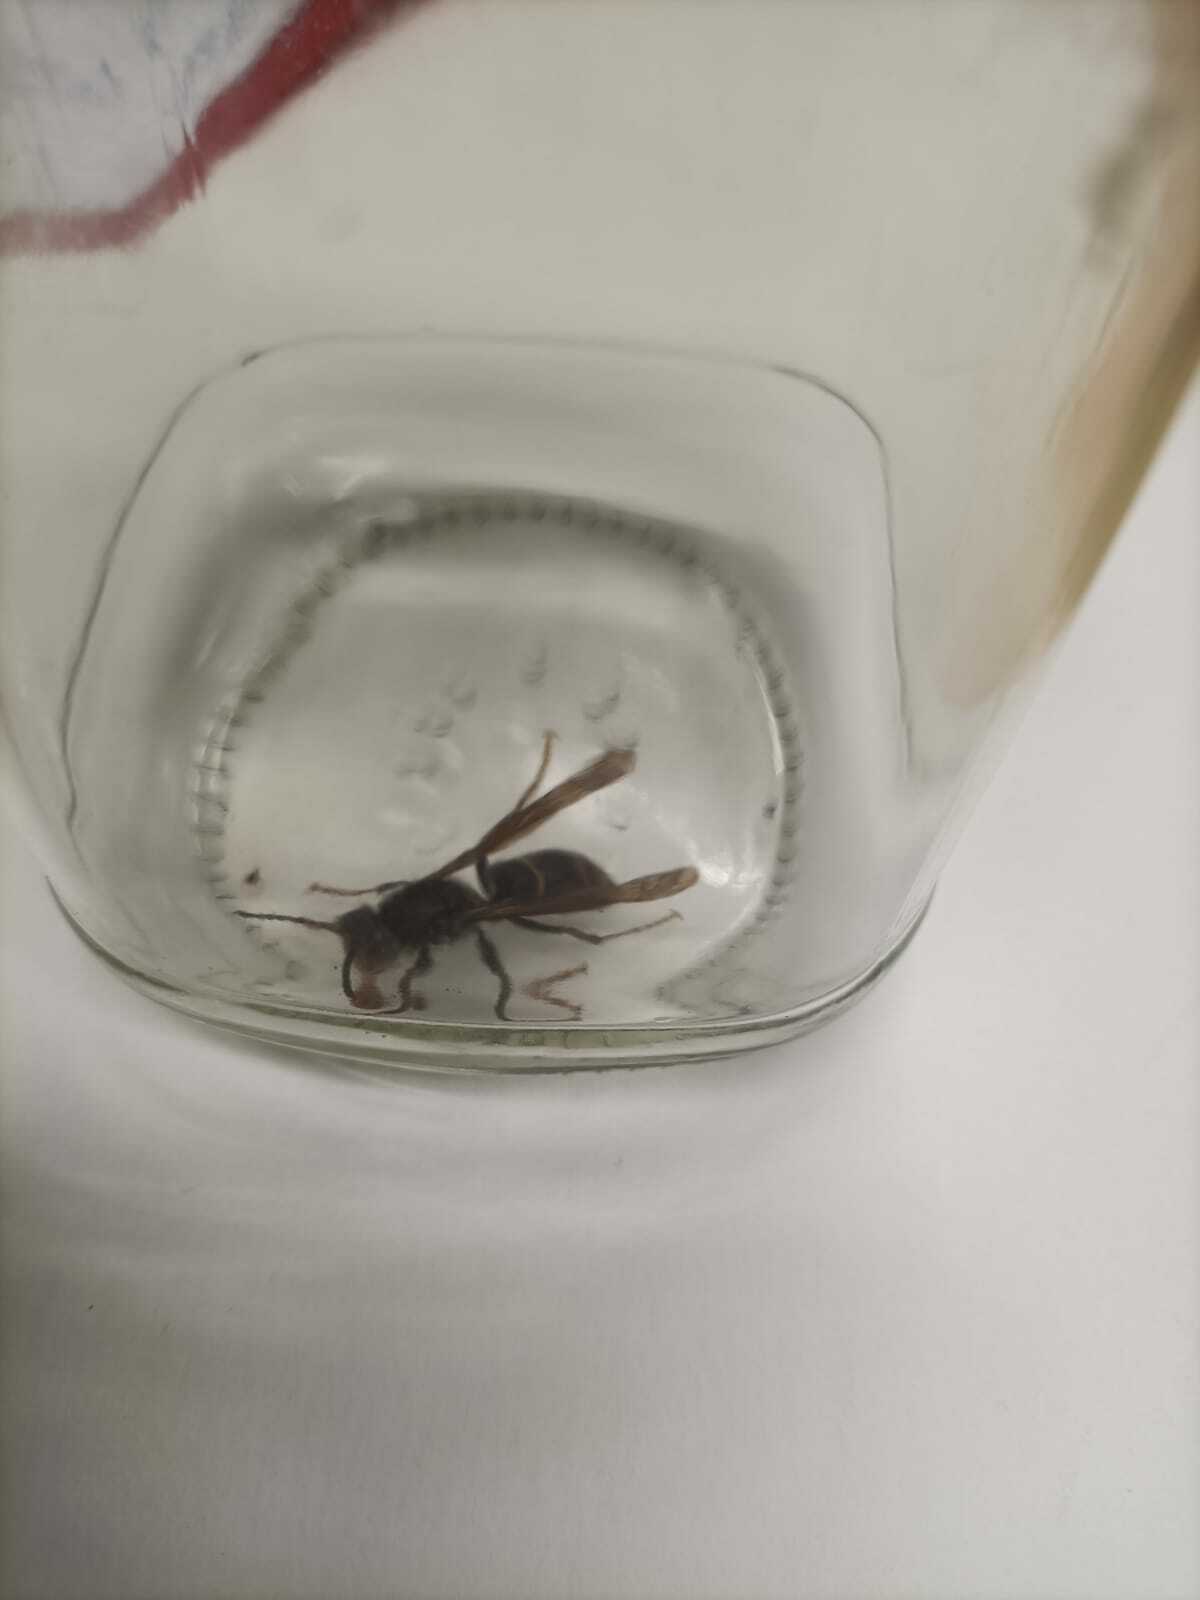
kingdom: Animalia
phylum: Arthropoda
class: Insecta
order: Hymenoptera
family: Vespidae
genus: Vespa
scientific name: Vespa velutina
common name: Asian hornet
